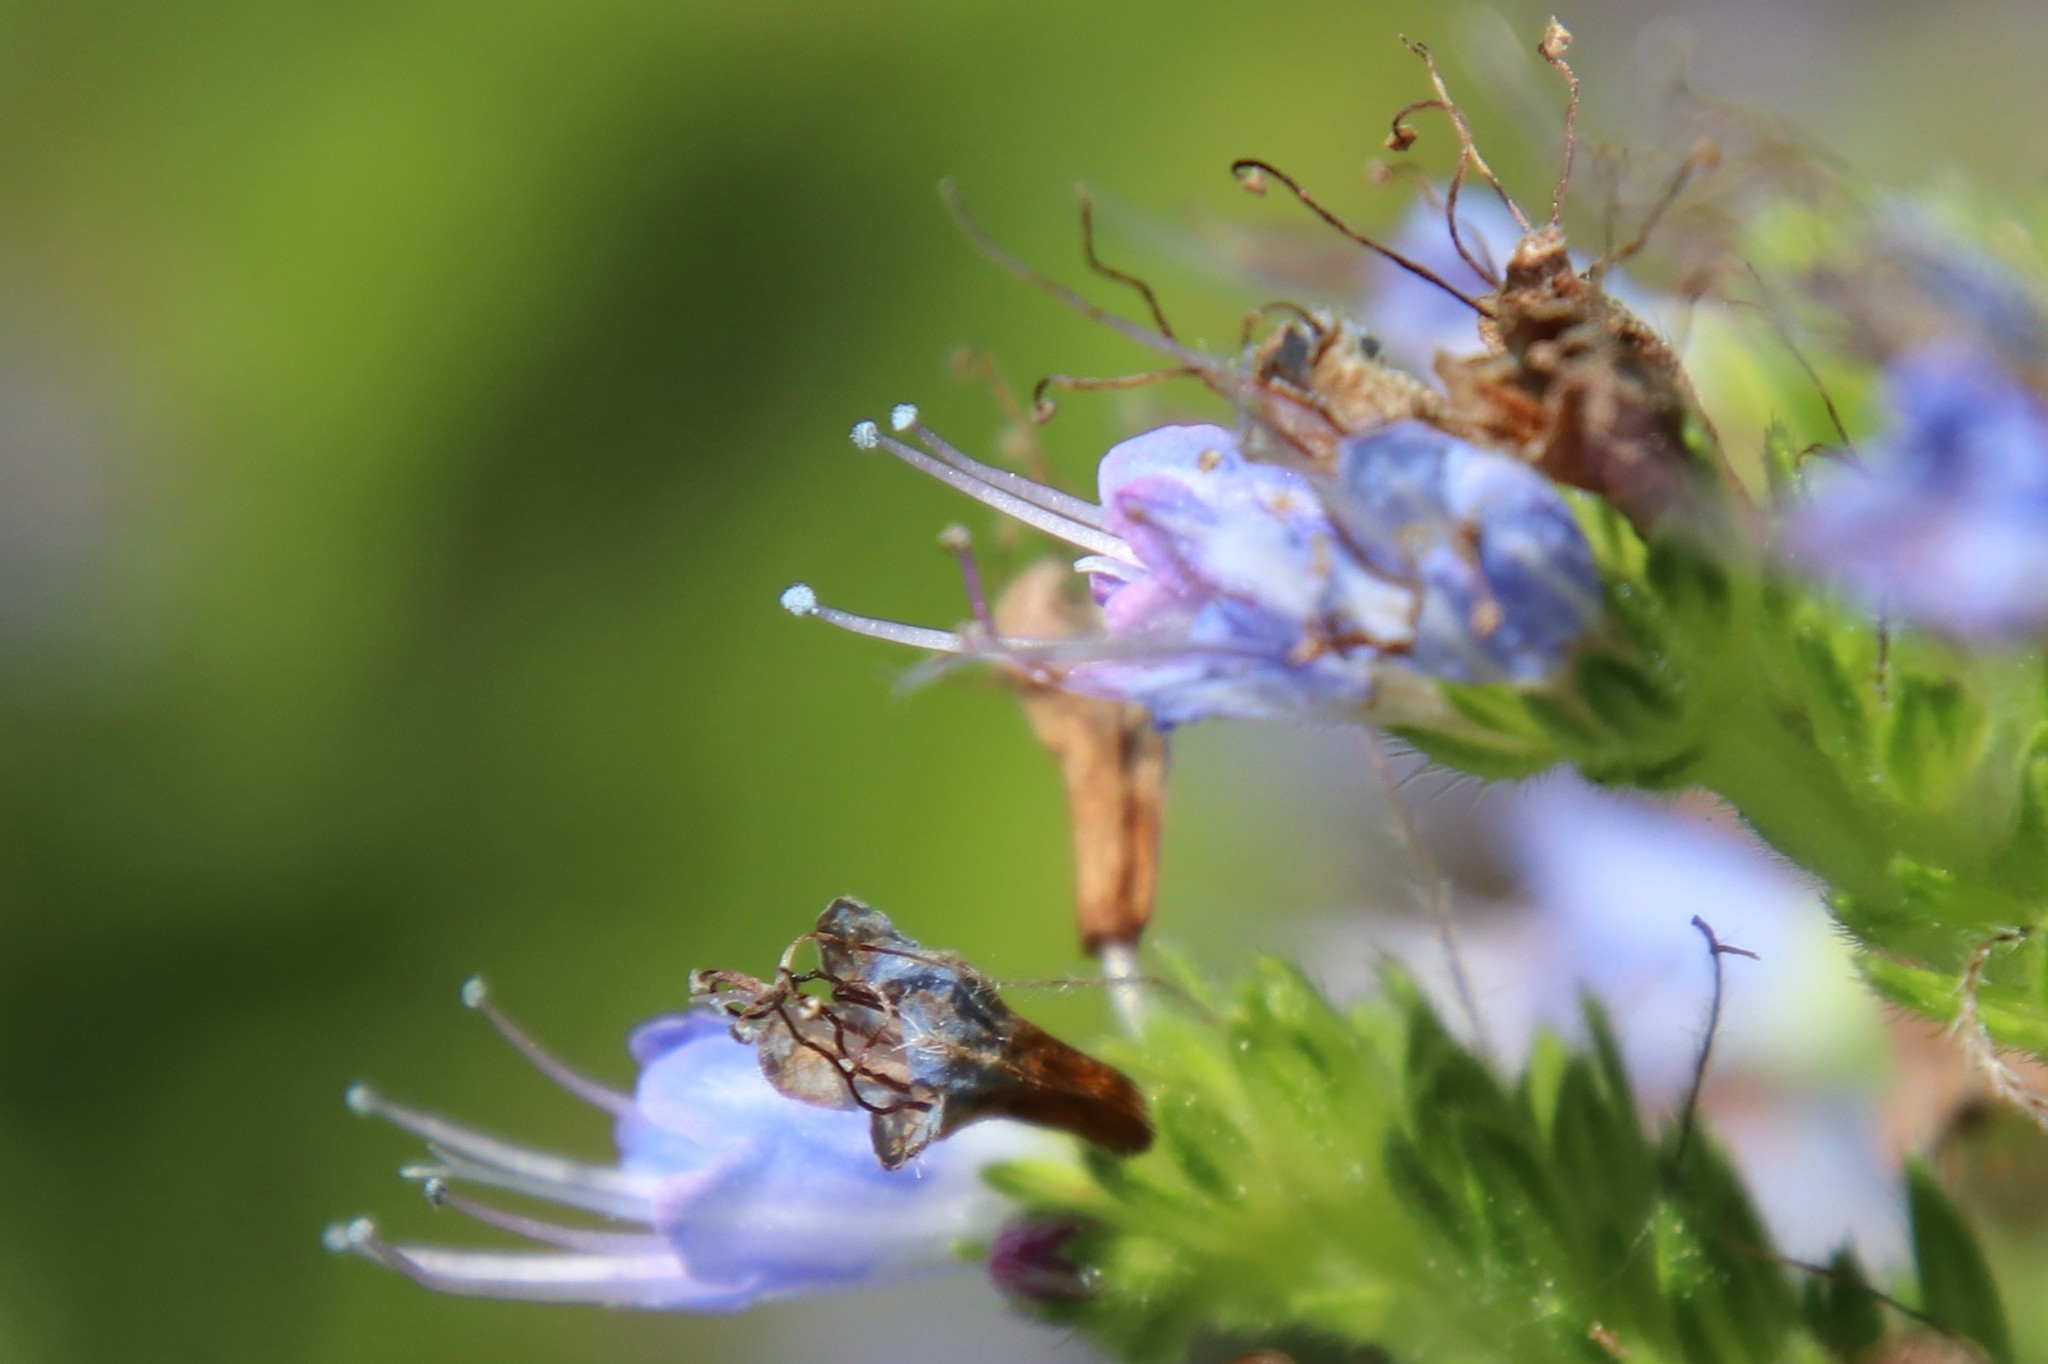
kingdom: Animalia
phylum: Arthropoda
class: Insecta
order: Hymenoptera
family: Apidae
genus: Apis
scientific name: Apis mellifera
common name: Honey bee
